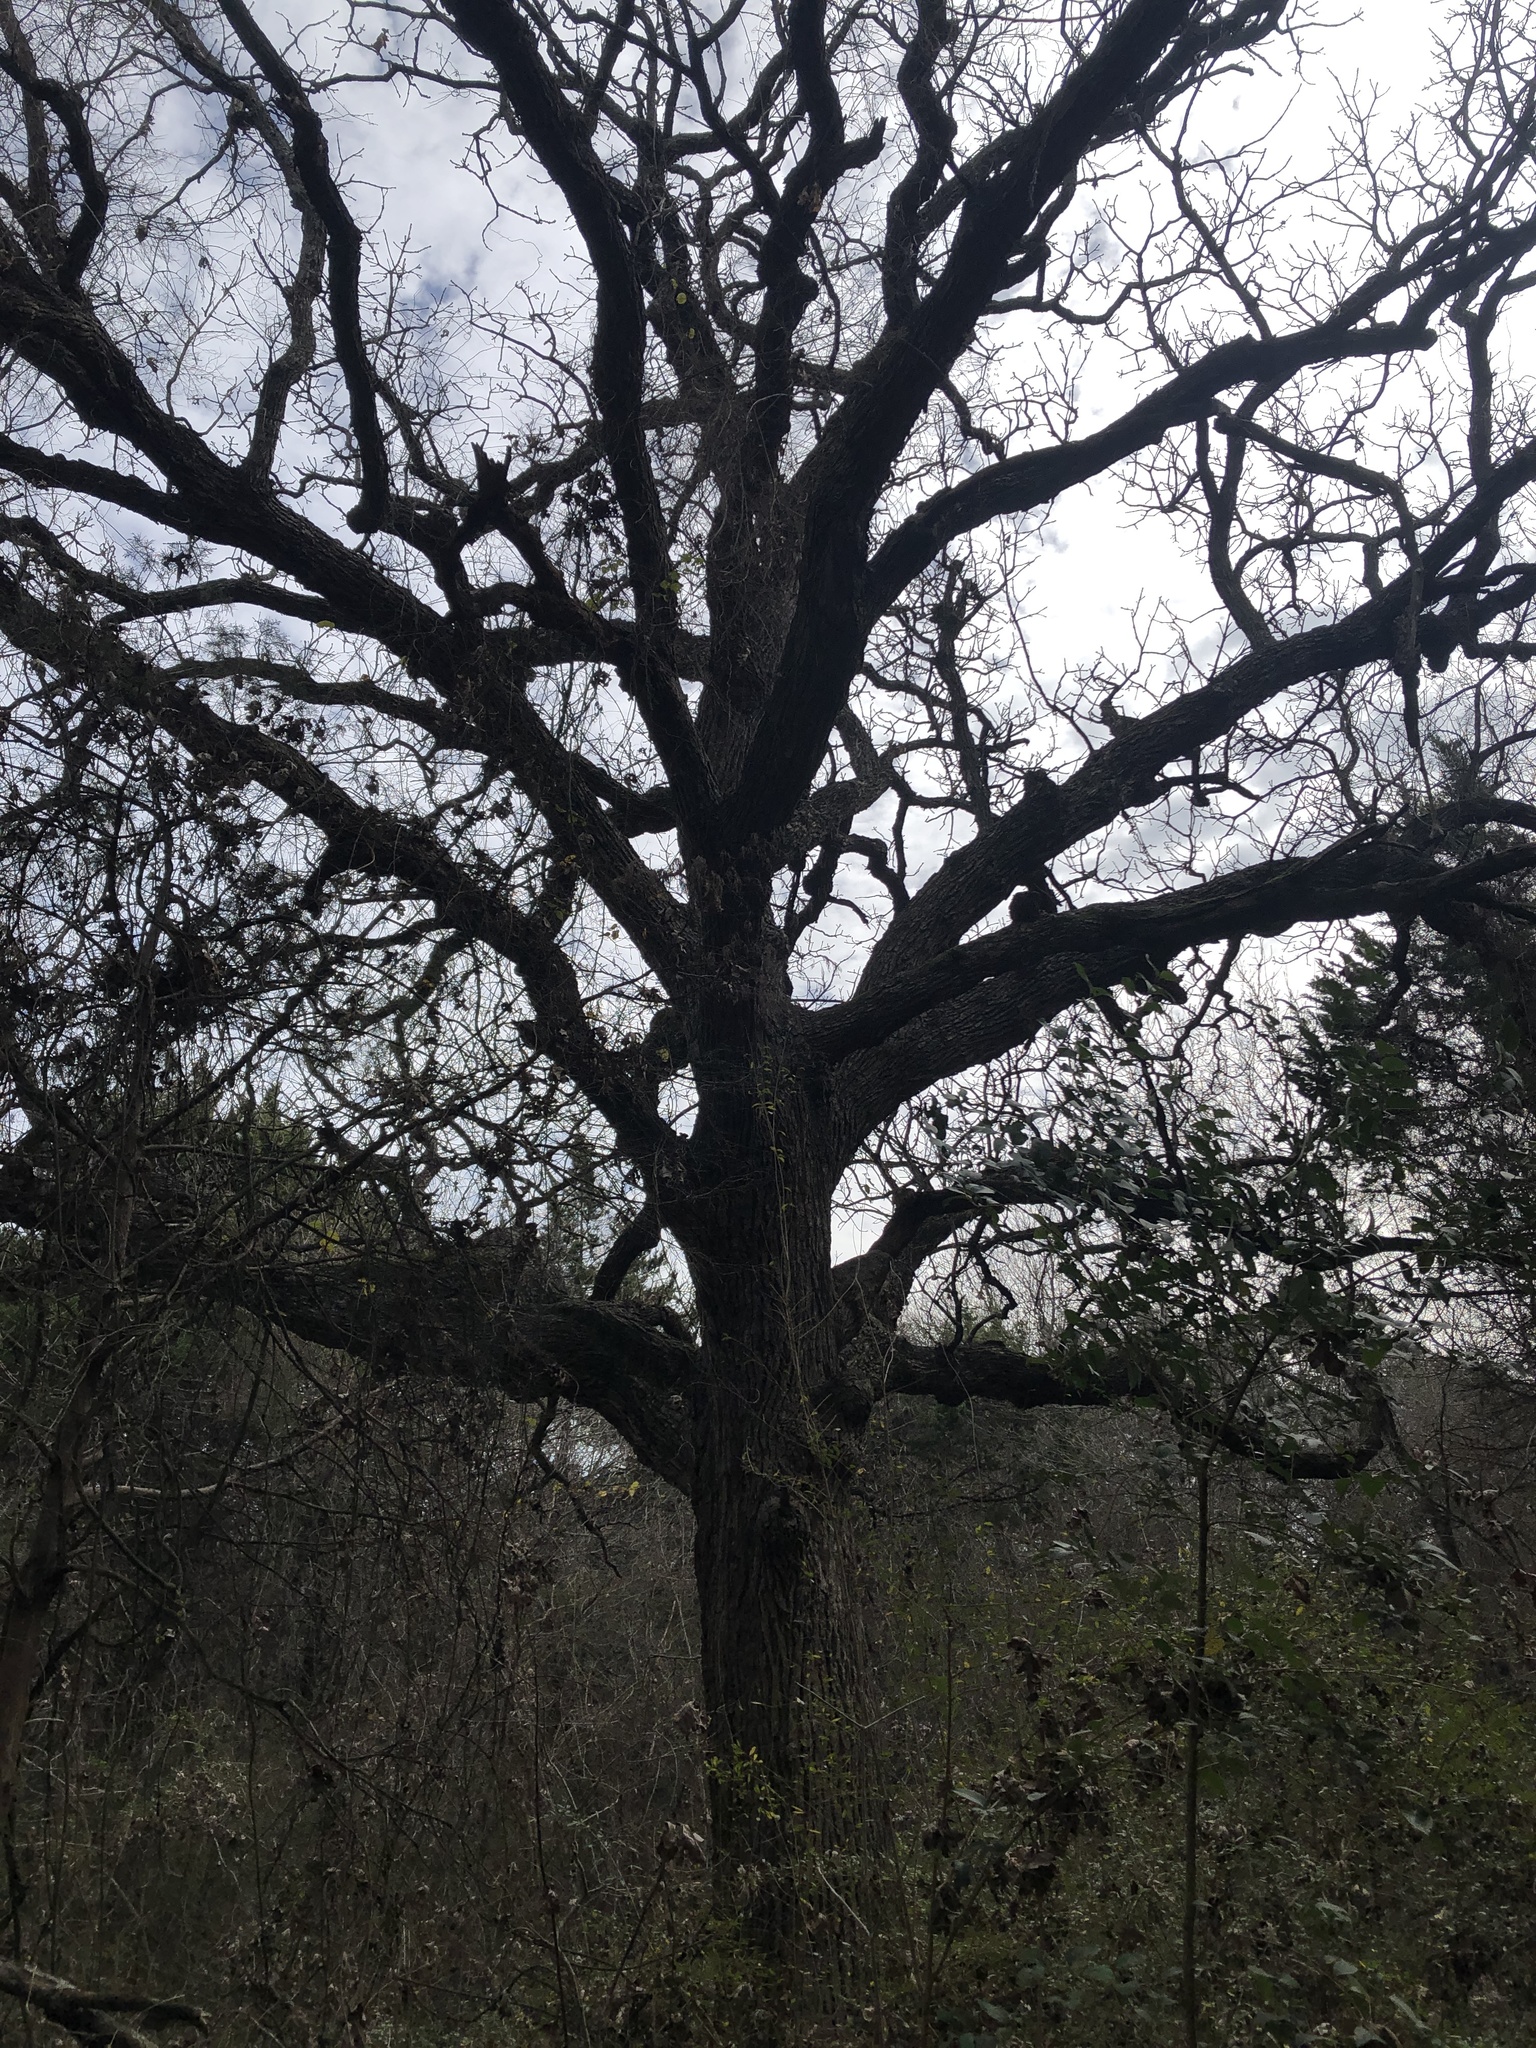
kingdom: Plantae
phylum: Tracheophyta
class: Magnoliopsida
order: Fagales
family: Fagaceae
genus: Quercus
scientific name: Quercus macrocarpa
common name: Bur oak
